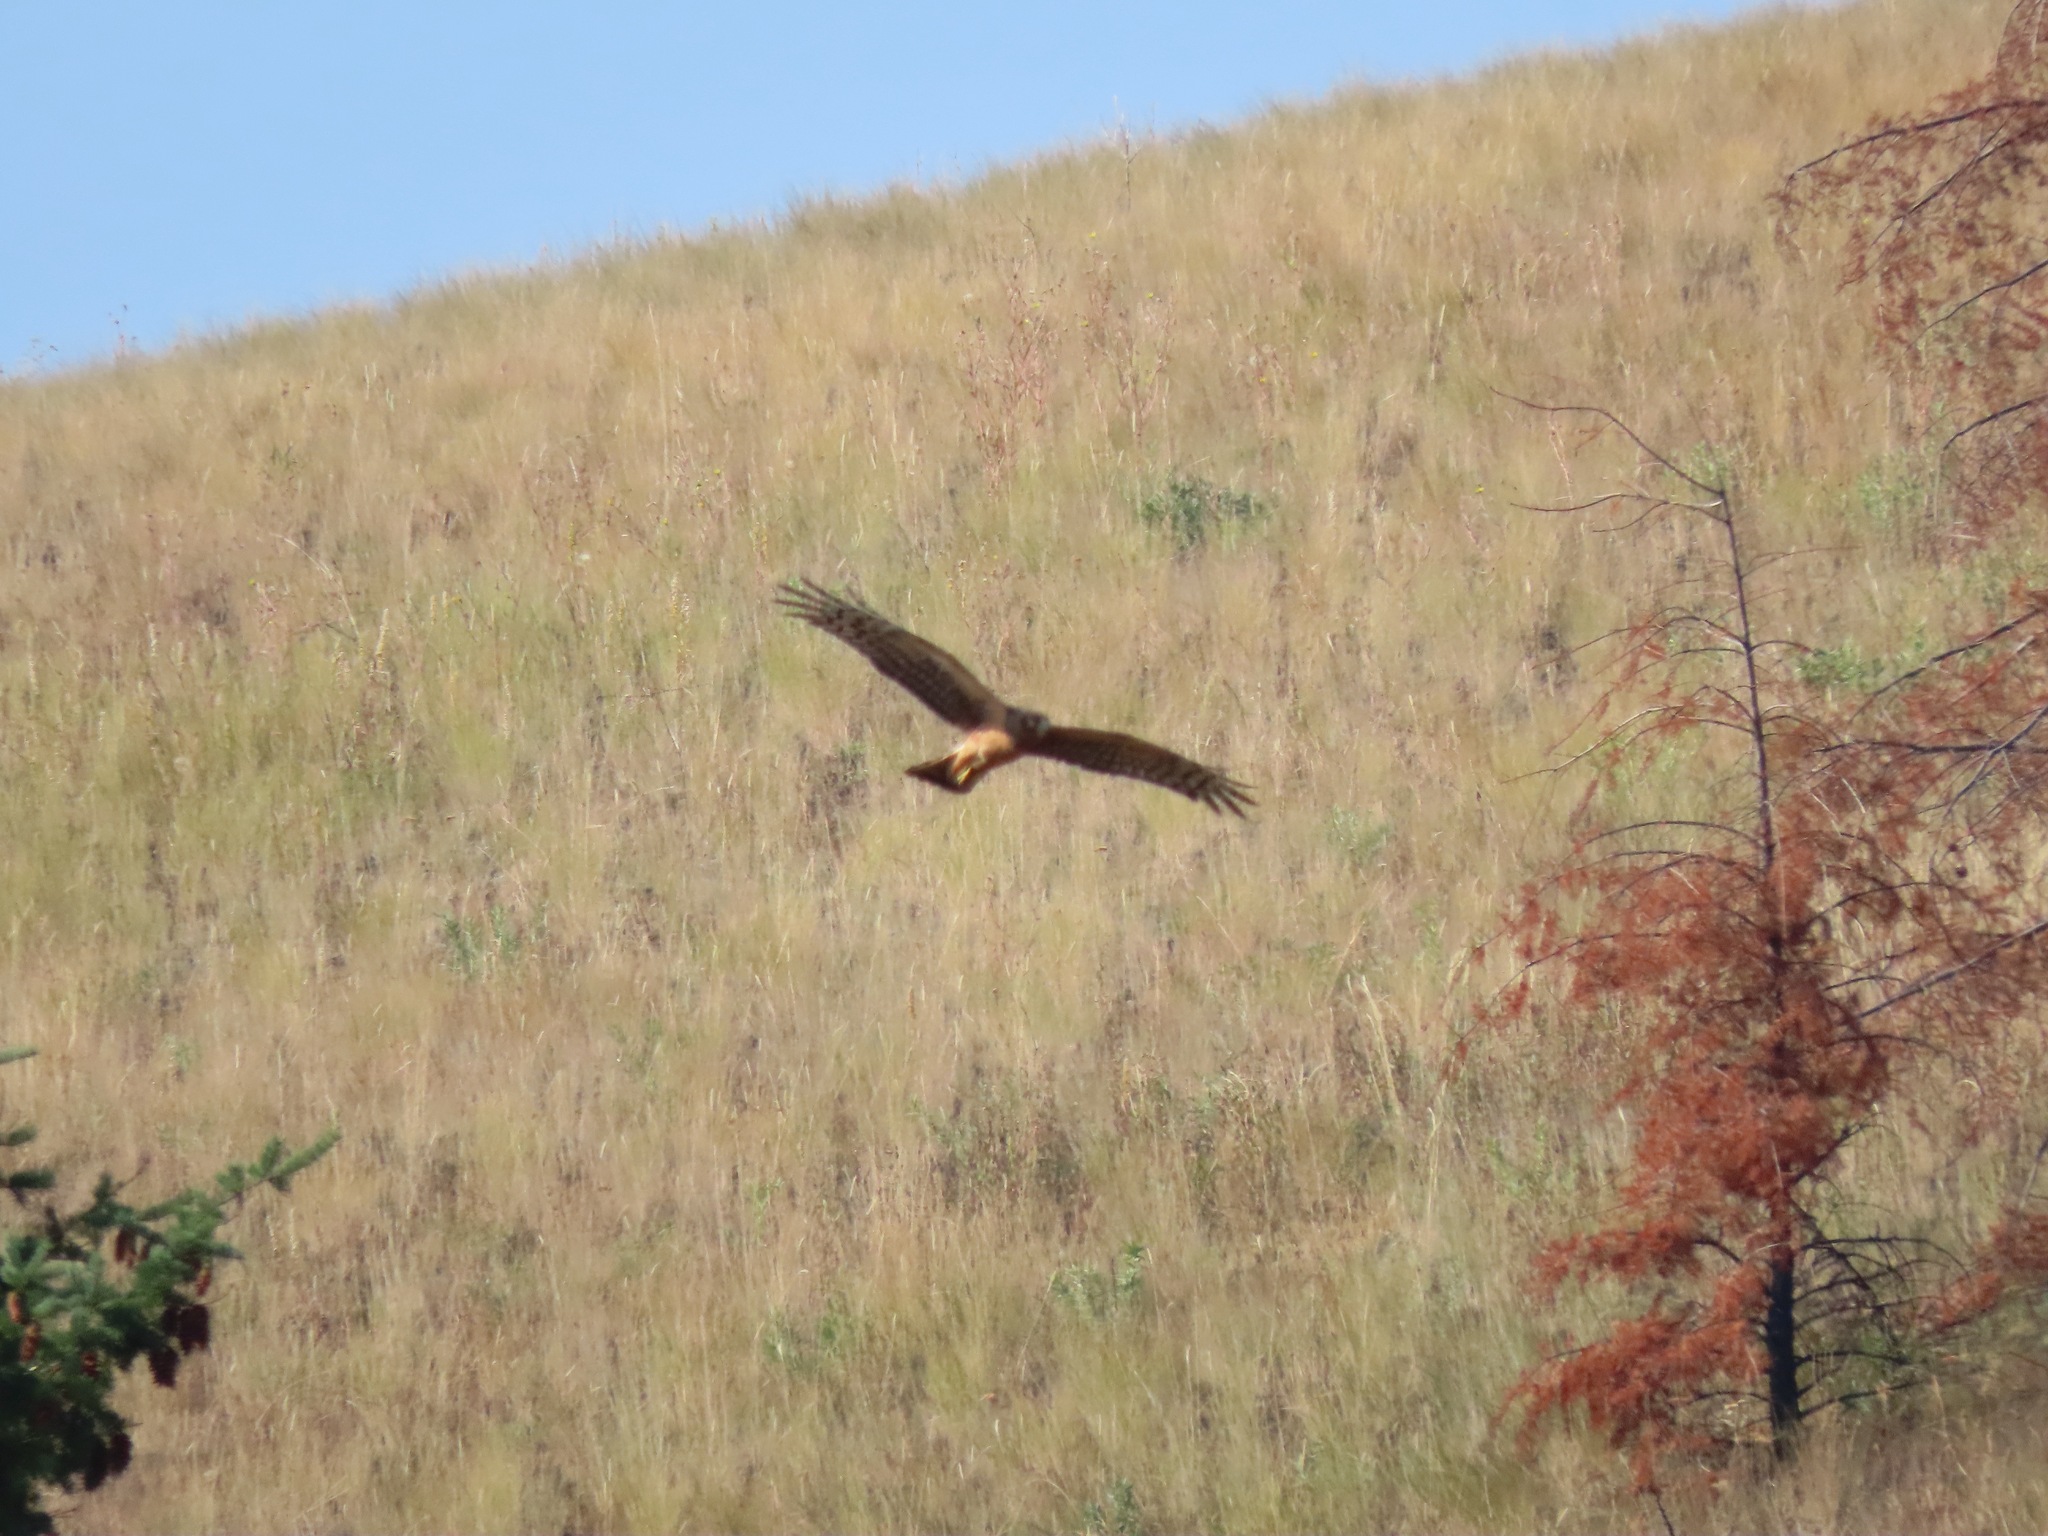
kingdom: Animalia
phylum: Chordata
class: Aves
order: Accipitriformes
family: Accipitridae
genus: Circus
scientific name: Circus cyaneus
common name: Hen harrier
